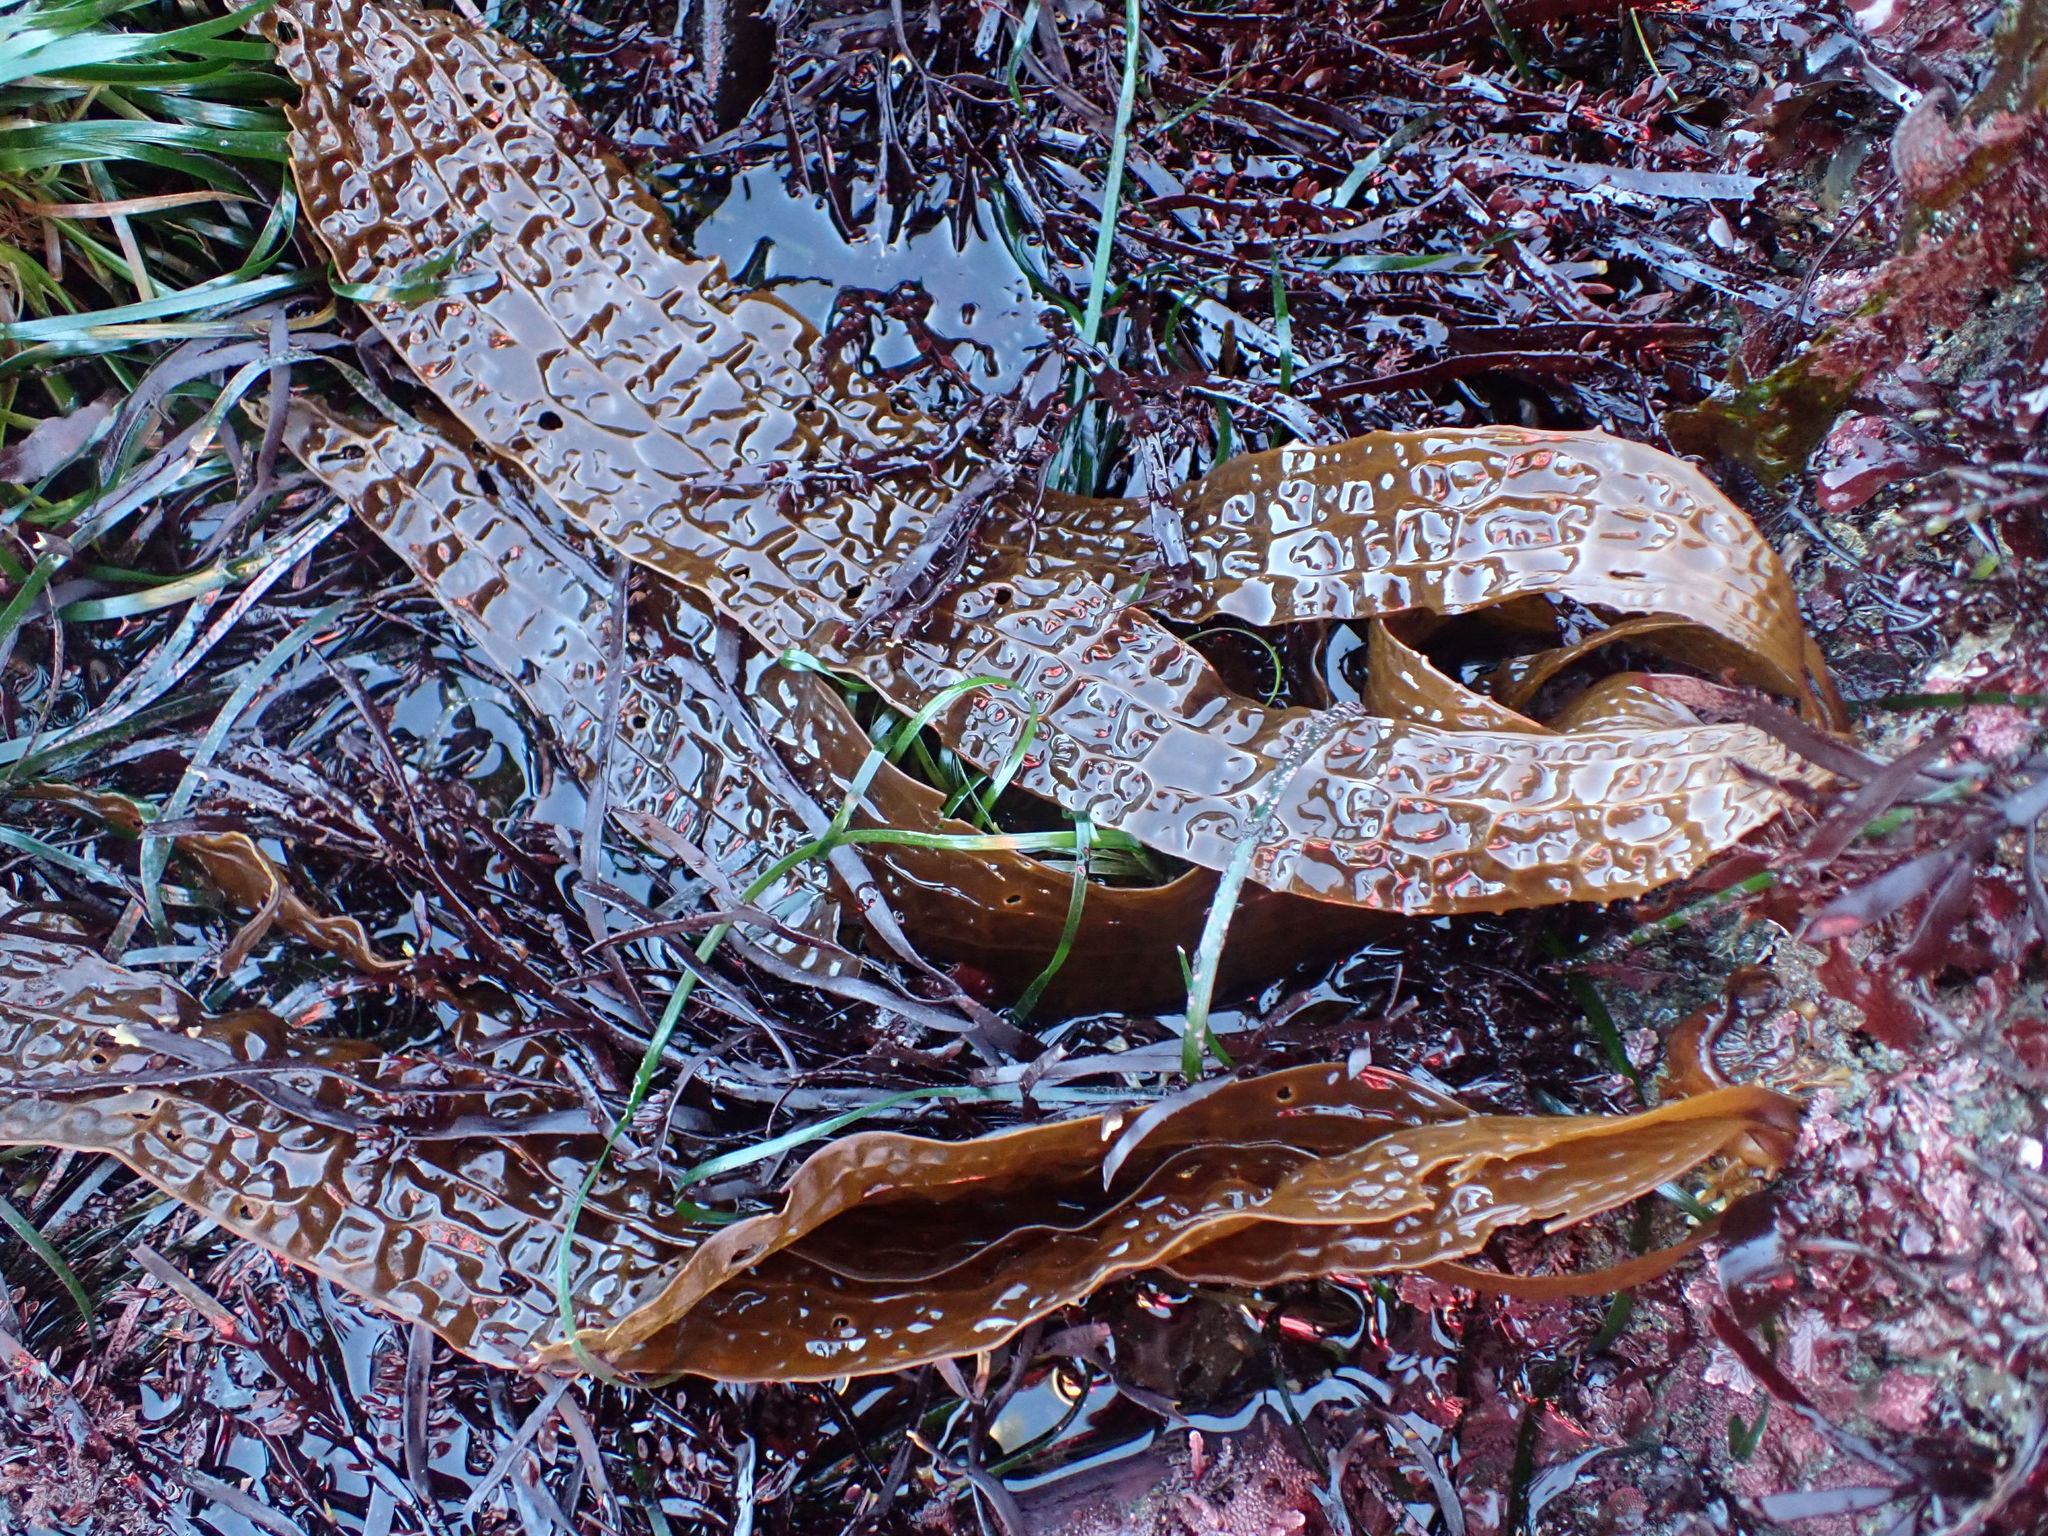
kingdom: Chromista
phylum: Ochrophyta
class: Phaeophyceae
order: Laminariales
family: Costariaceae
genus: Dictyoneurum
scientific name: Dictyoneurum californicum
